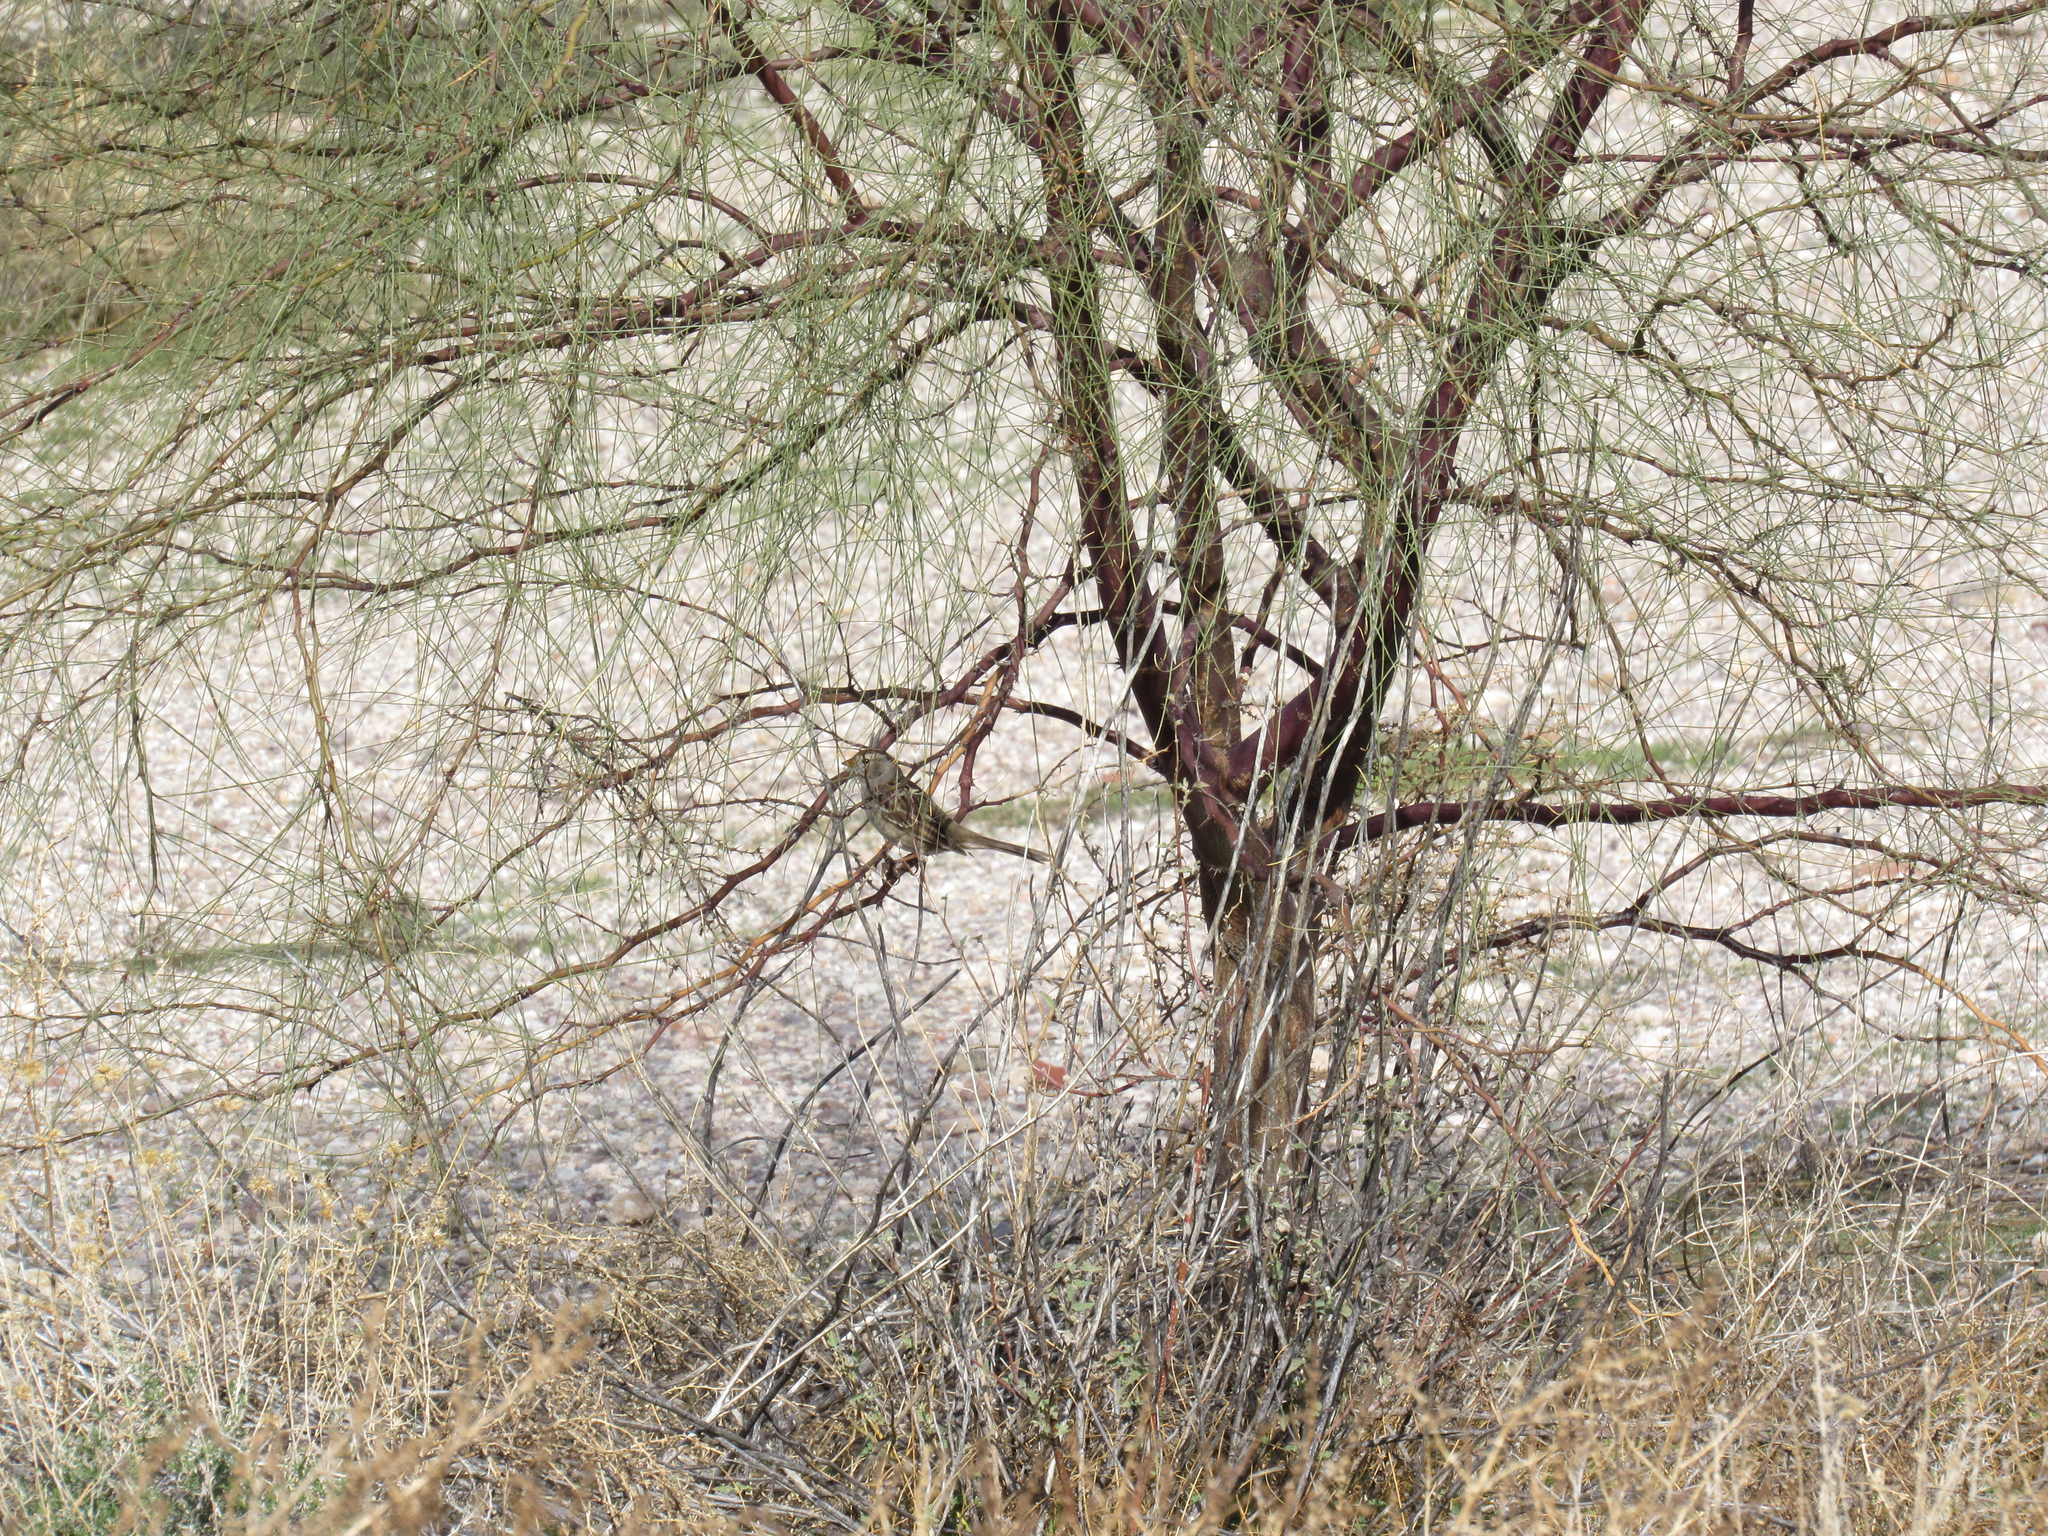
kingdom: Animalia
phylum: Chordata
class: Aves
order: Passeriformes
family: Passerellidae
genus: Zonotrichia
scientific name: Zonotrichia leucophrys
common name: White-crowned sparrow
